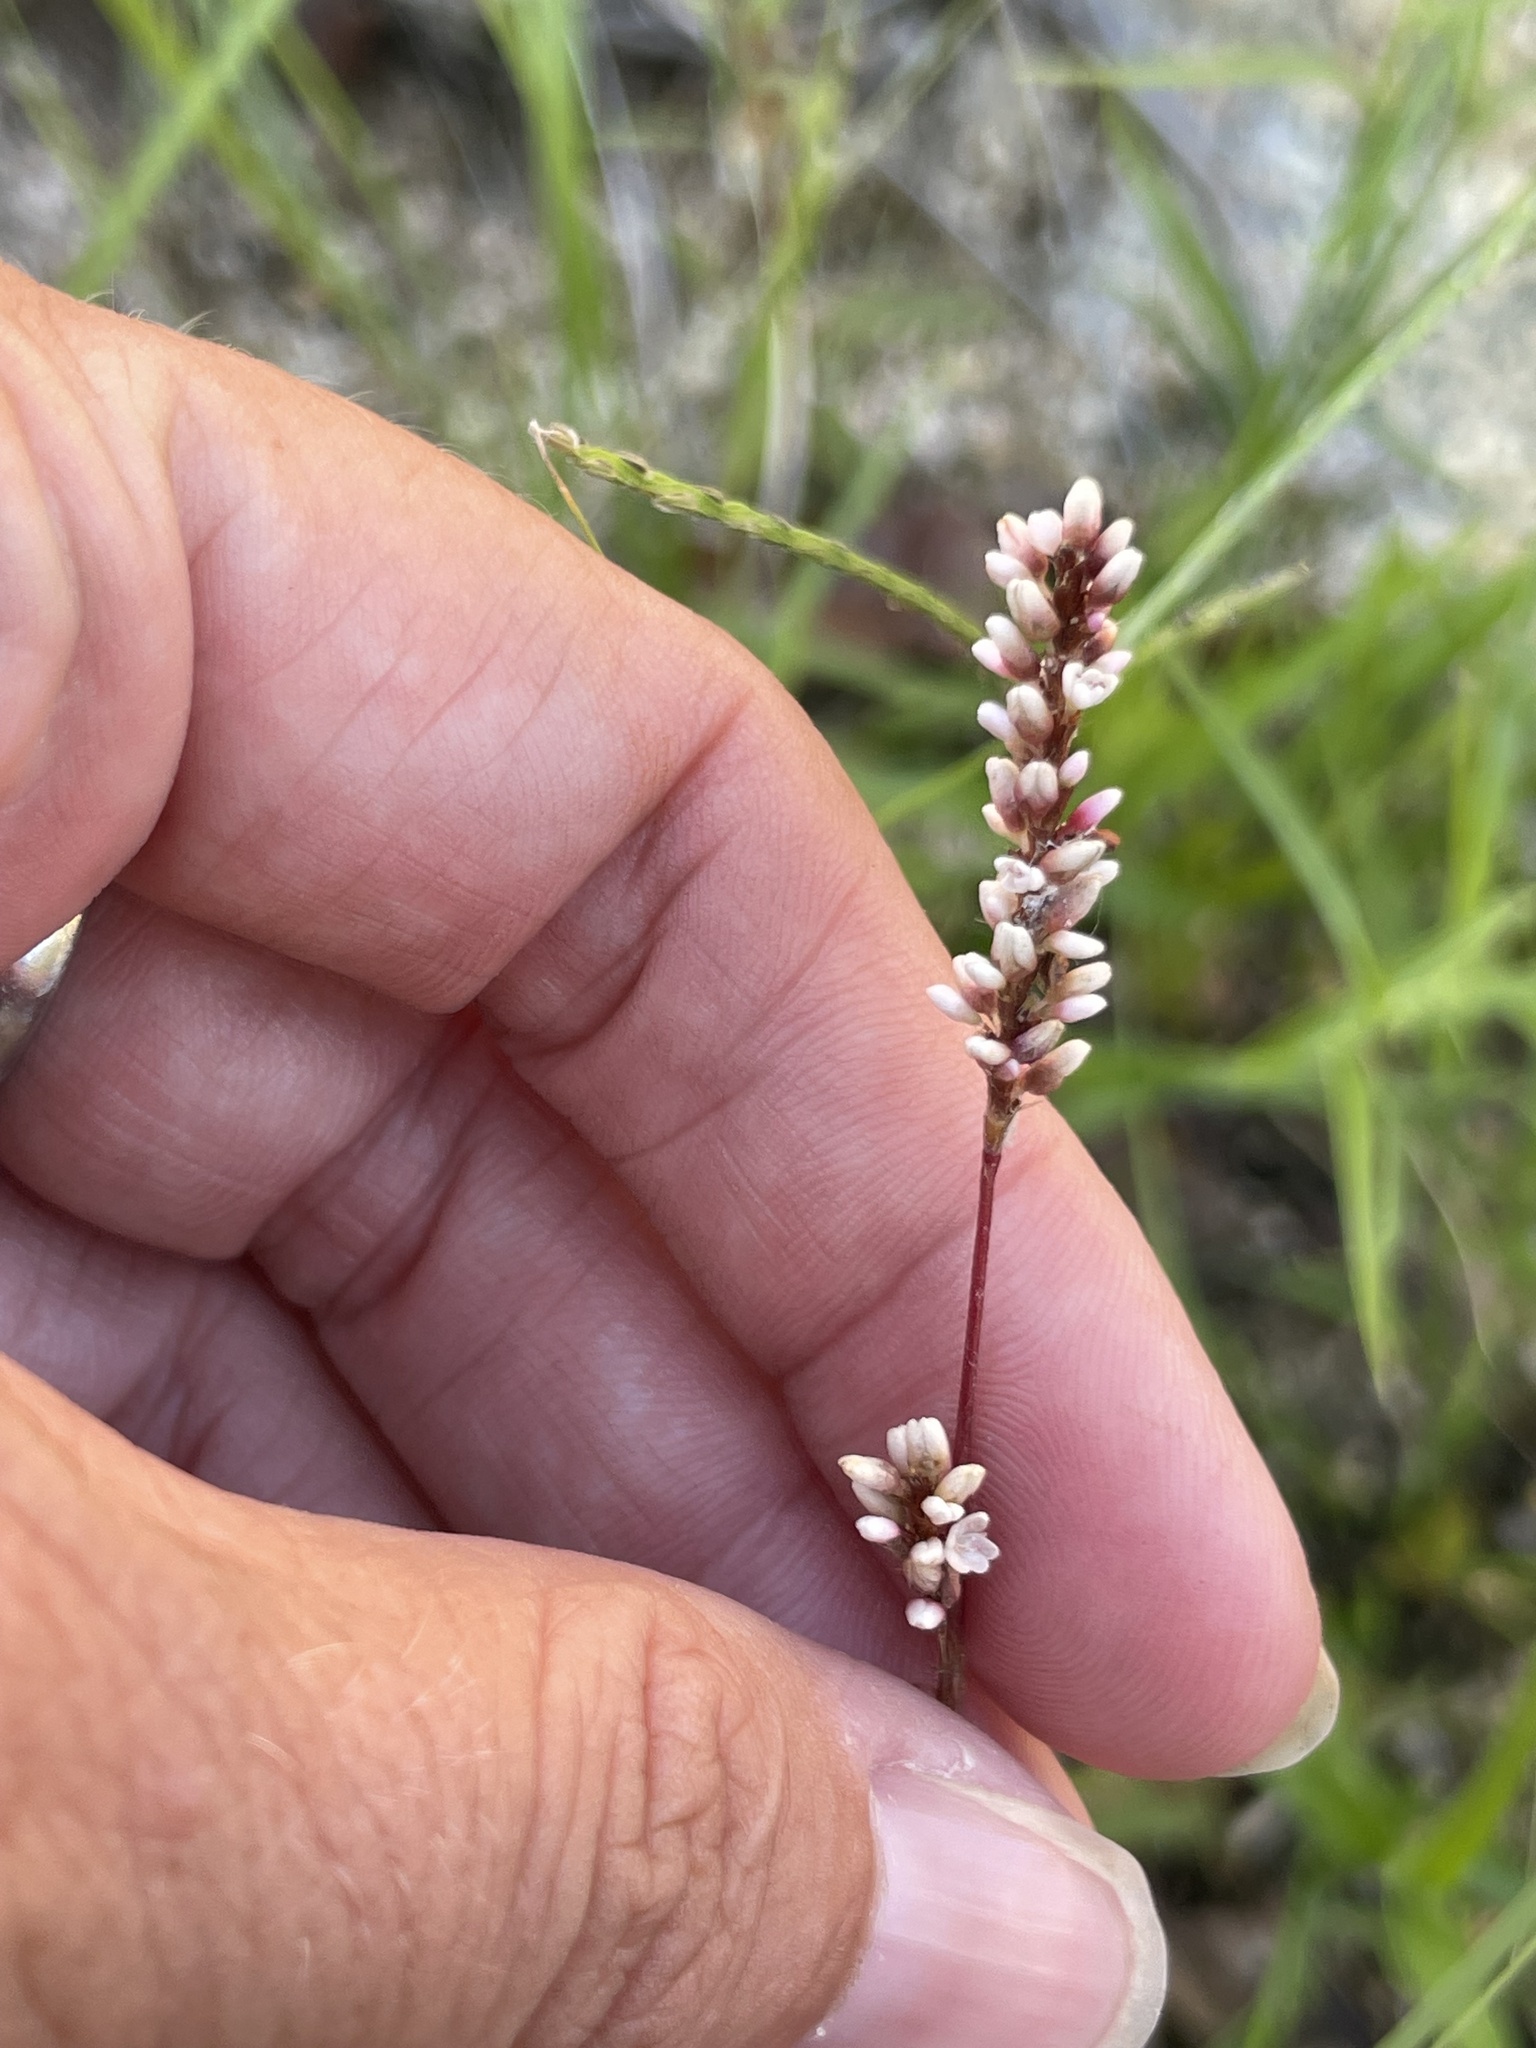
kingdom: Plantae
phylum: Tracheophyta
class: Magnoliopsida
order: Caryophyllales
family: Polygonaceae
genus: Persicaria
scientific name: Persicaria hydropiperoides
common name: Swamp smartweed
